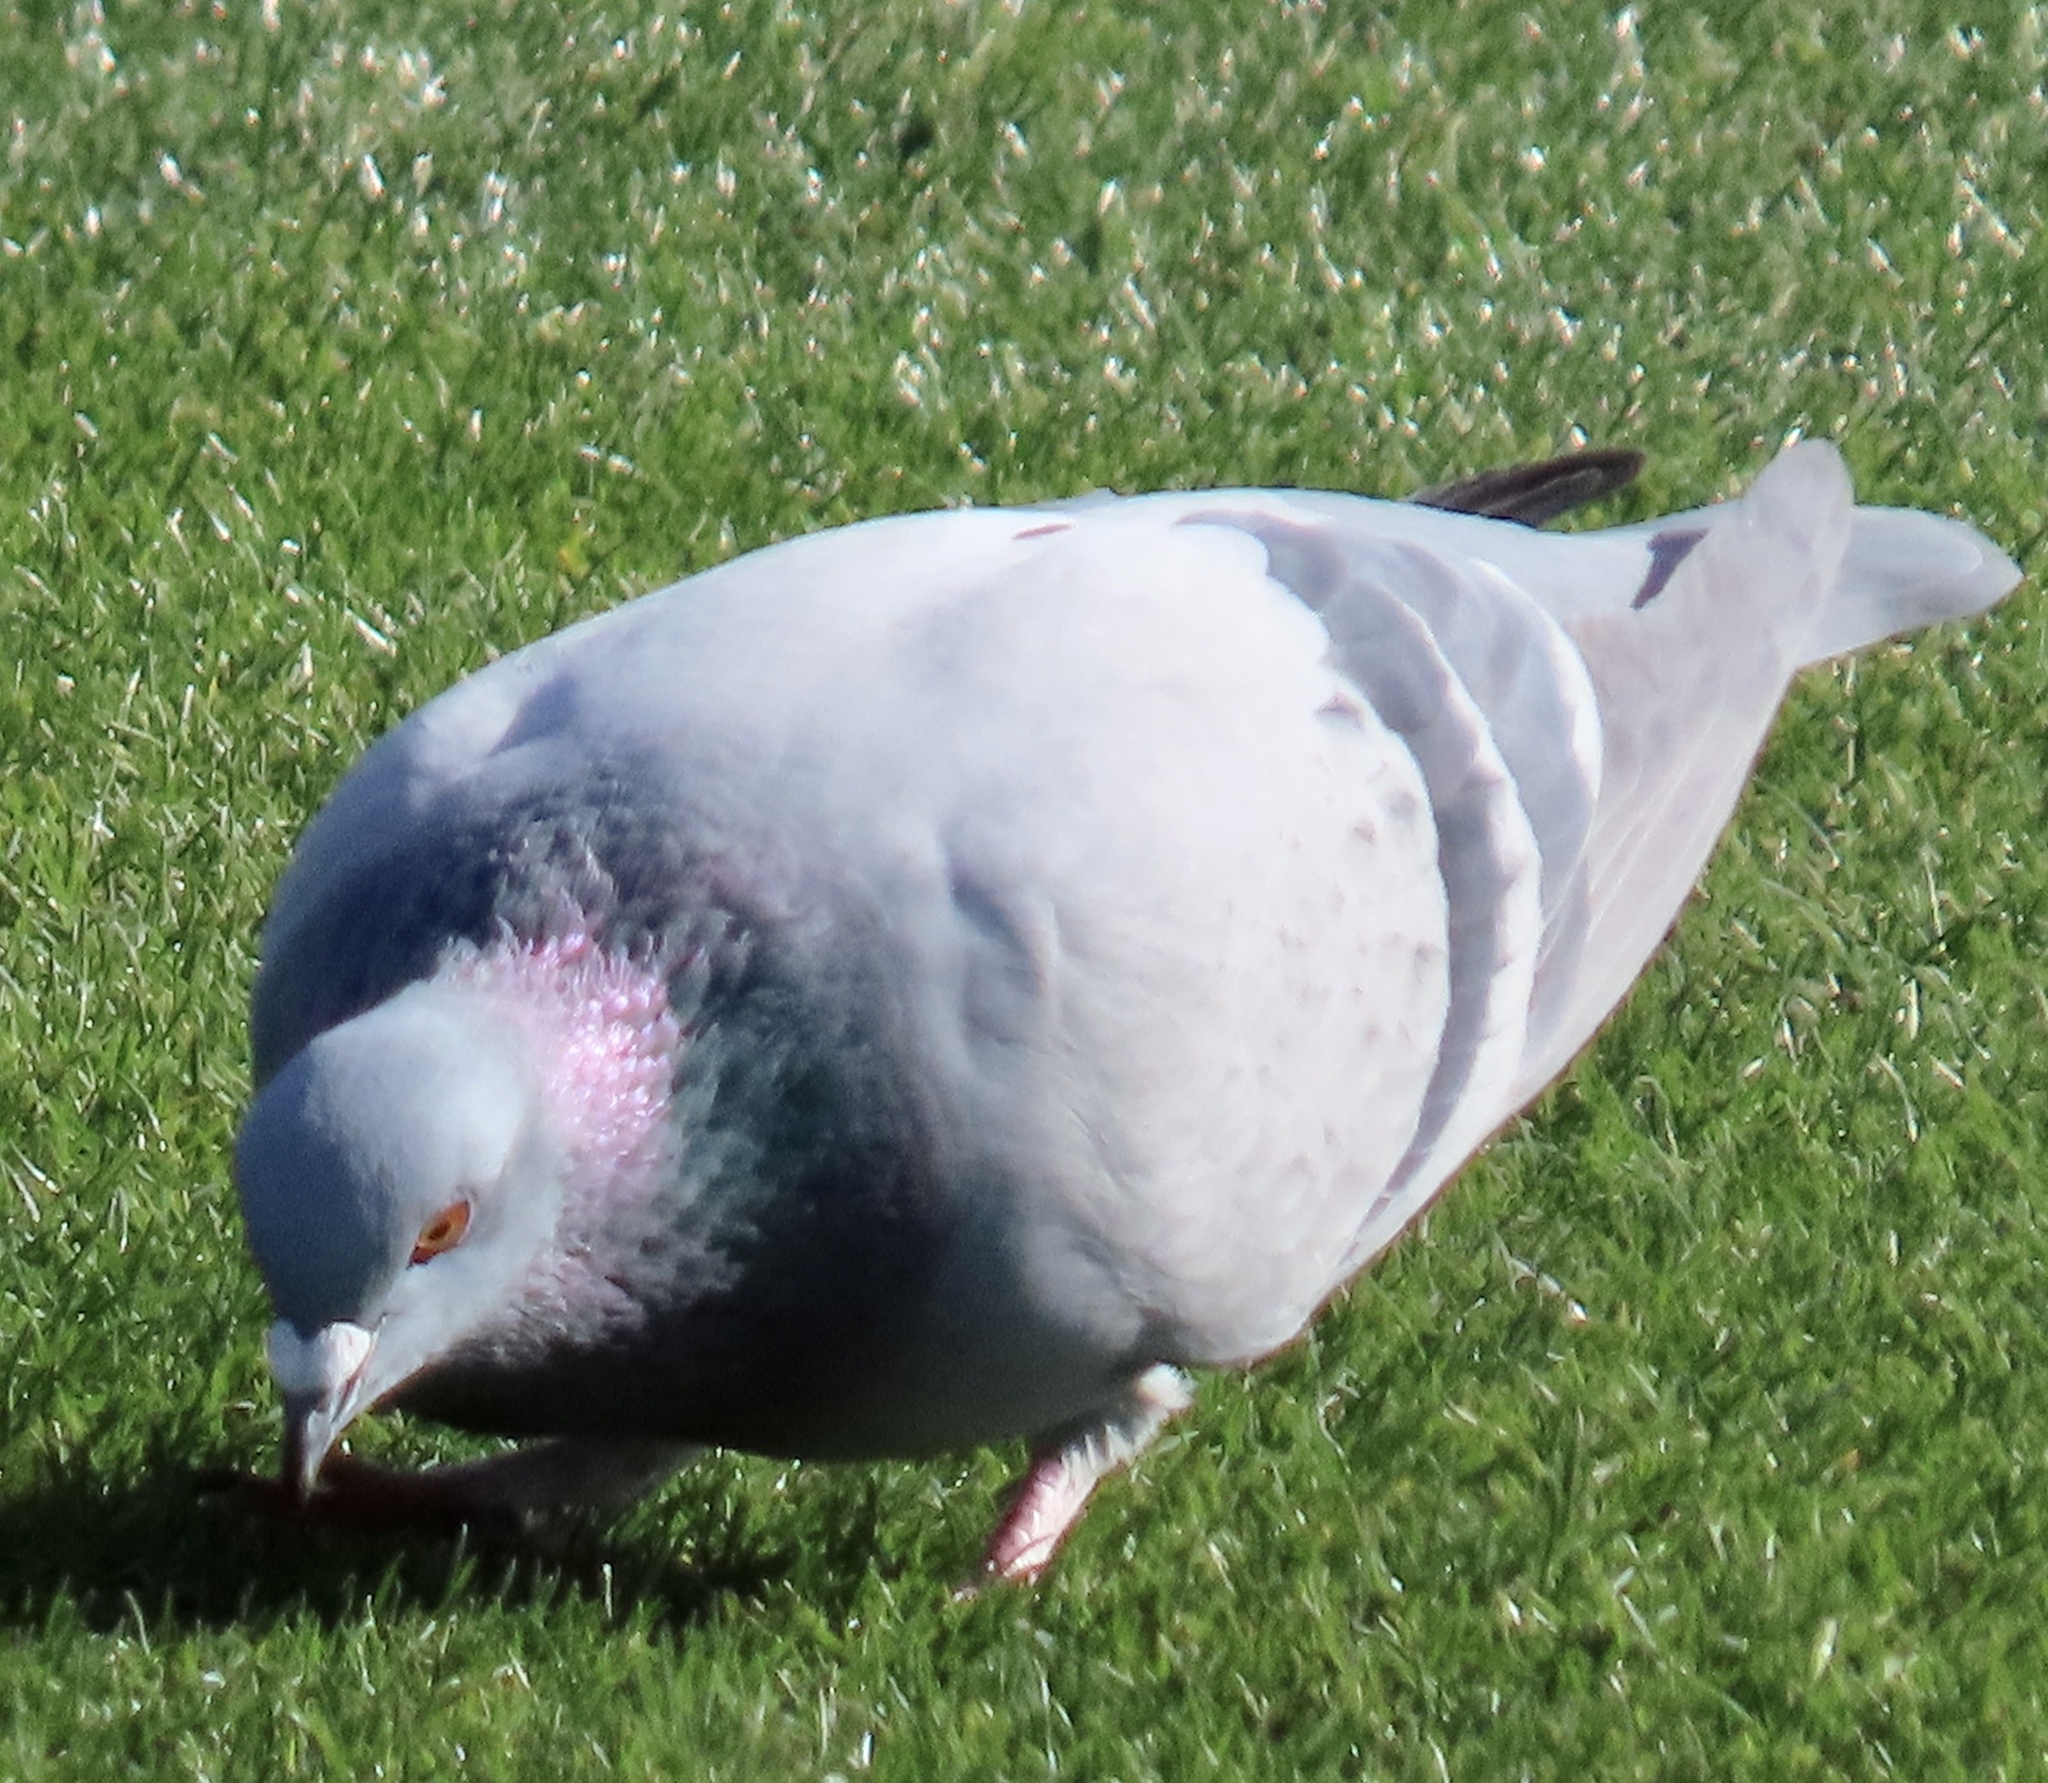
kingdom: Animalia
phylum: Chordata
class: Aves
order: Columbiformes
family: Columbidae
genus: Columba
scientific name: Columba livia
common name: Rock pigeon
